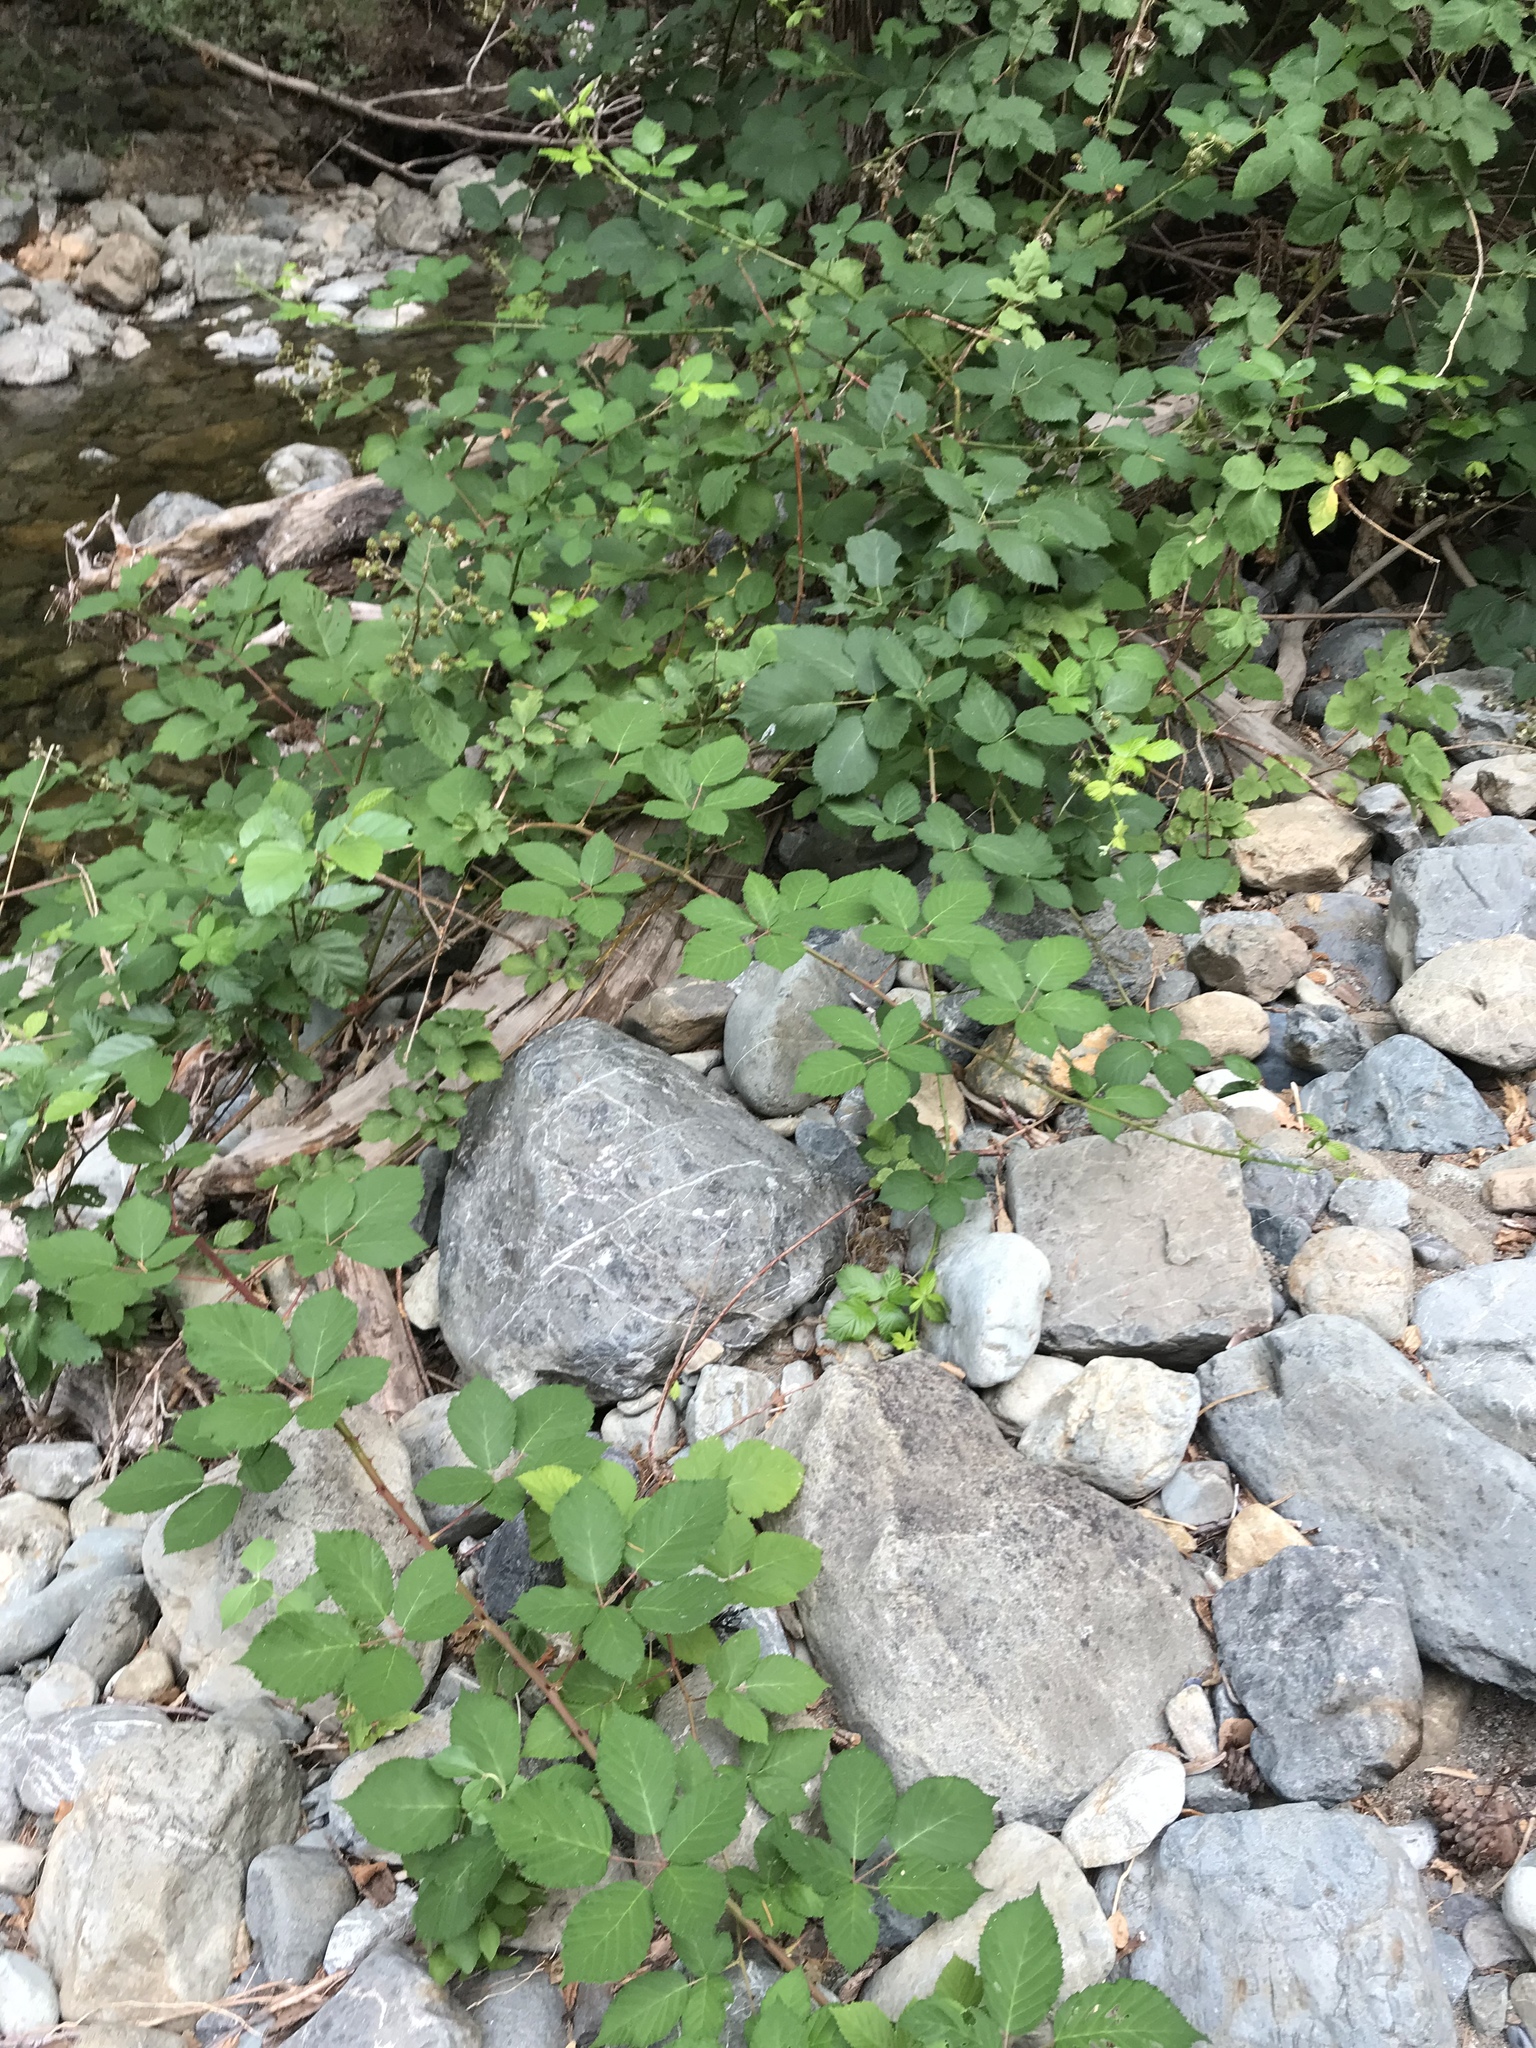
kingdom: Plantae
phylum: Tracheophyta
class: Magnoliopsida
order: Rosales
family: Rosaceae
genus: Rubus
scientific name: Rubus bifrons
